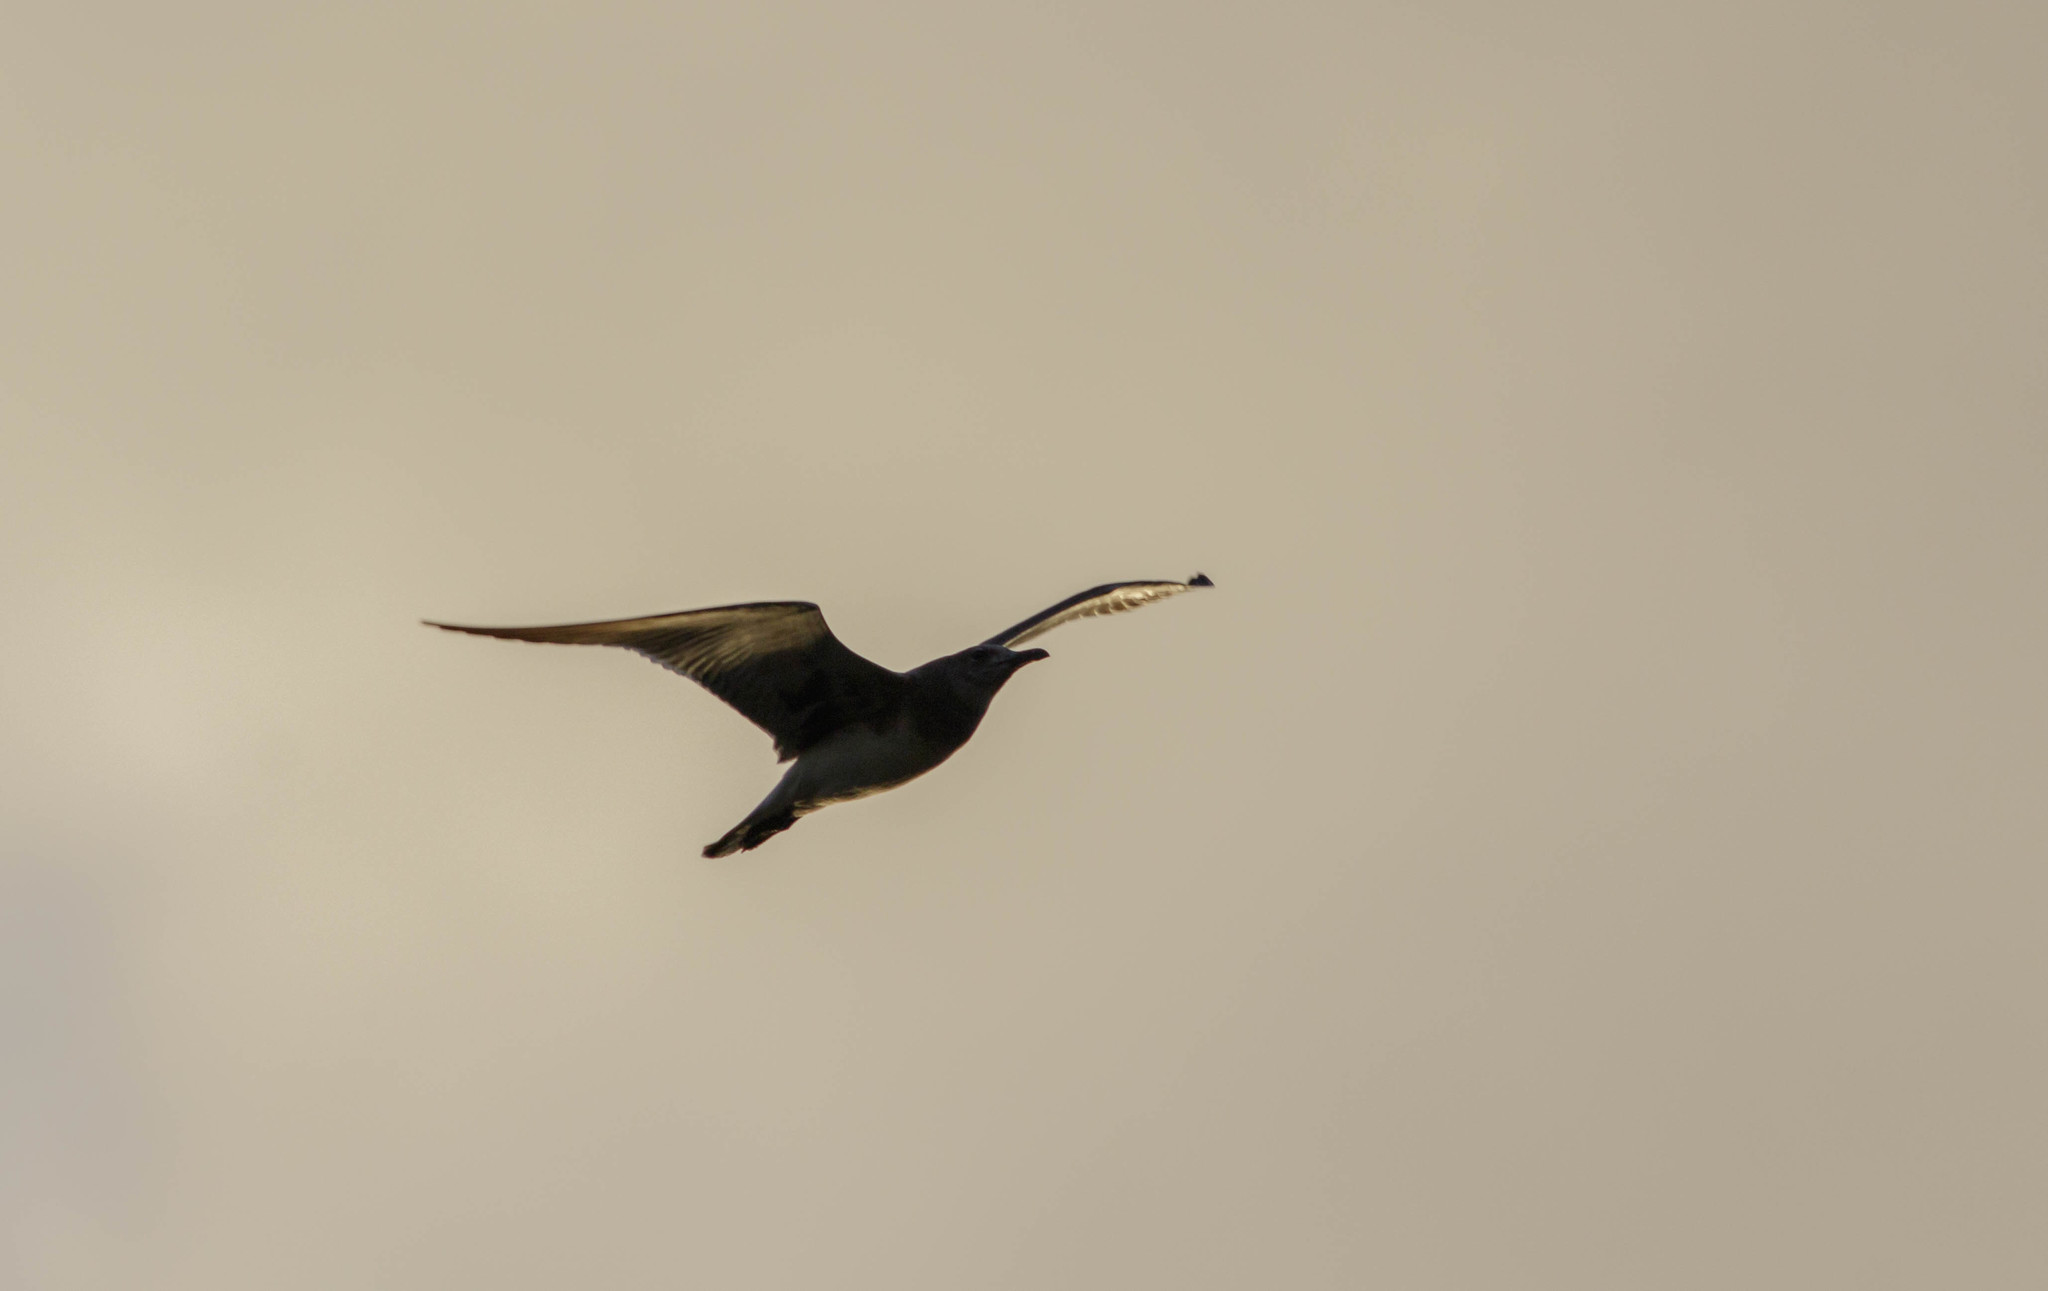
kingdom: Animalia
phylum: Chordata
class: Aves
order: Charadriiformes
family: Laridae
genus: Leucophaeus
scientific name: Leucophaeus atricilla
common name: Laughing gull
